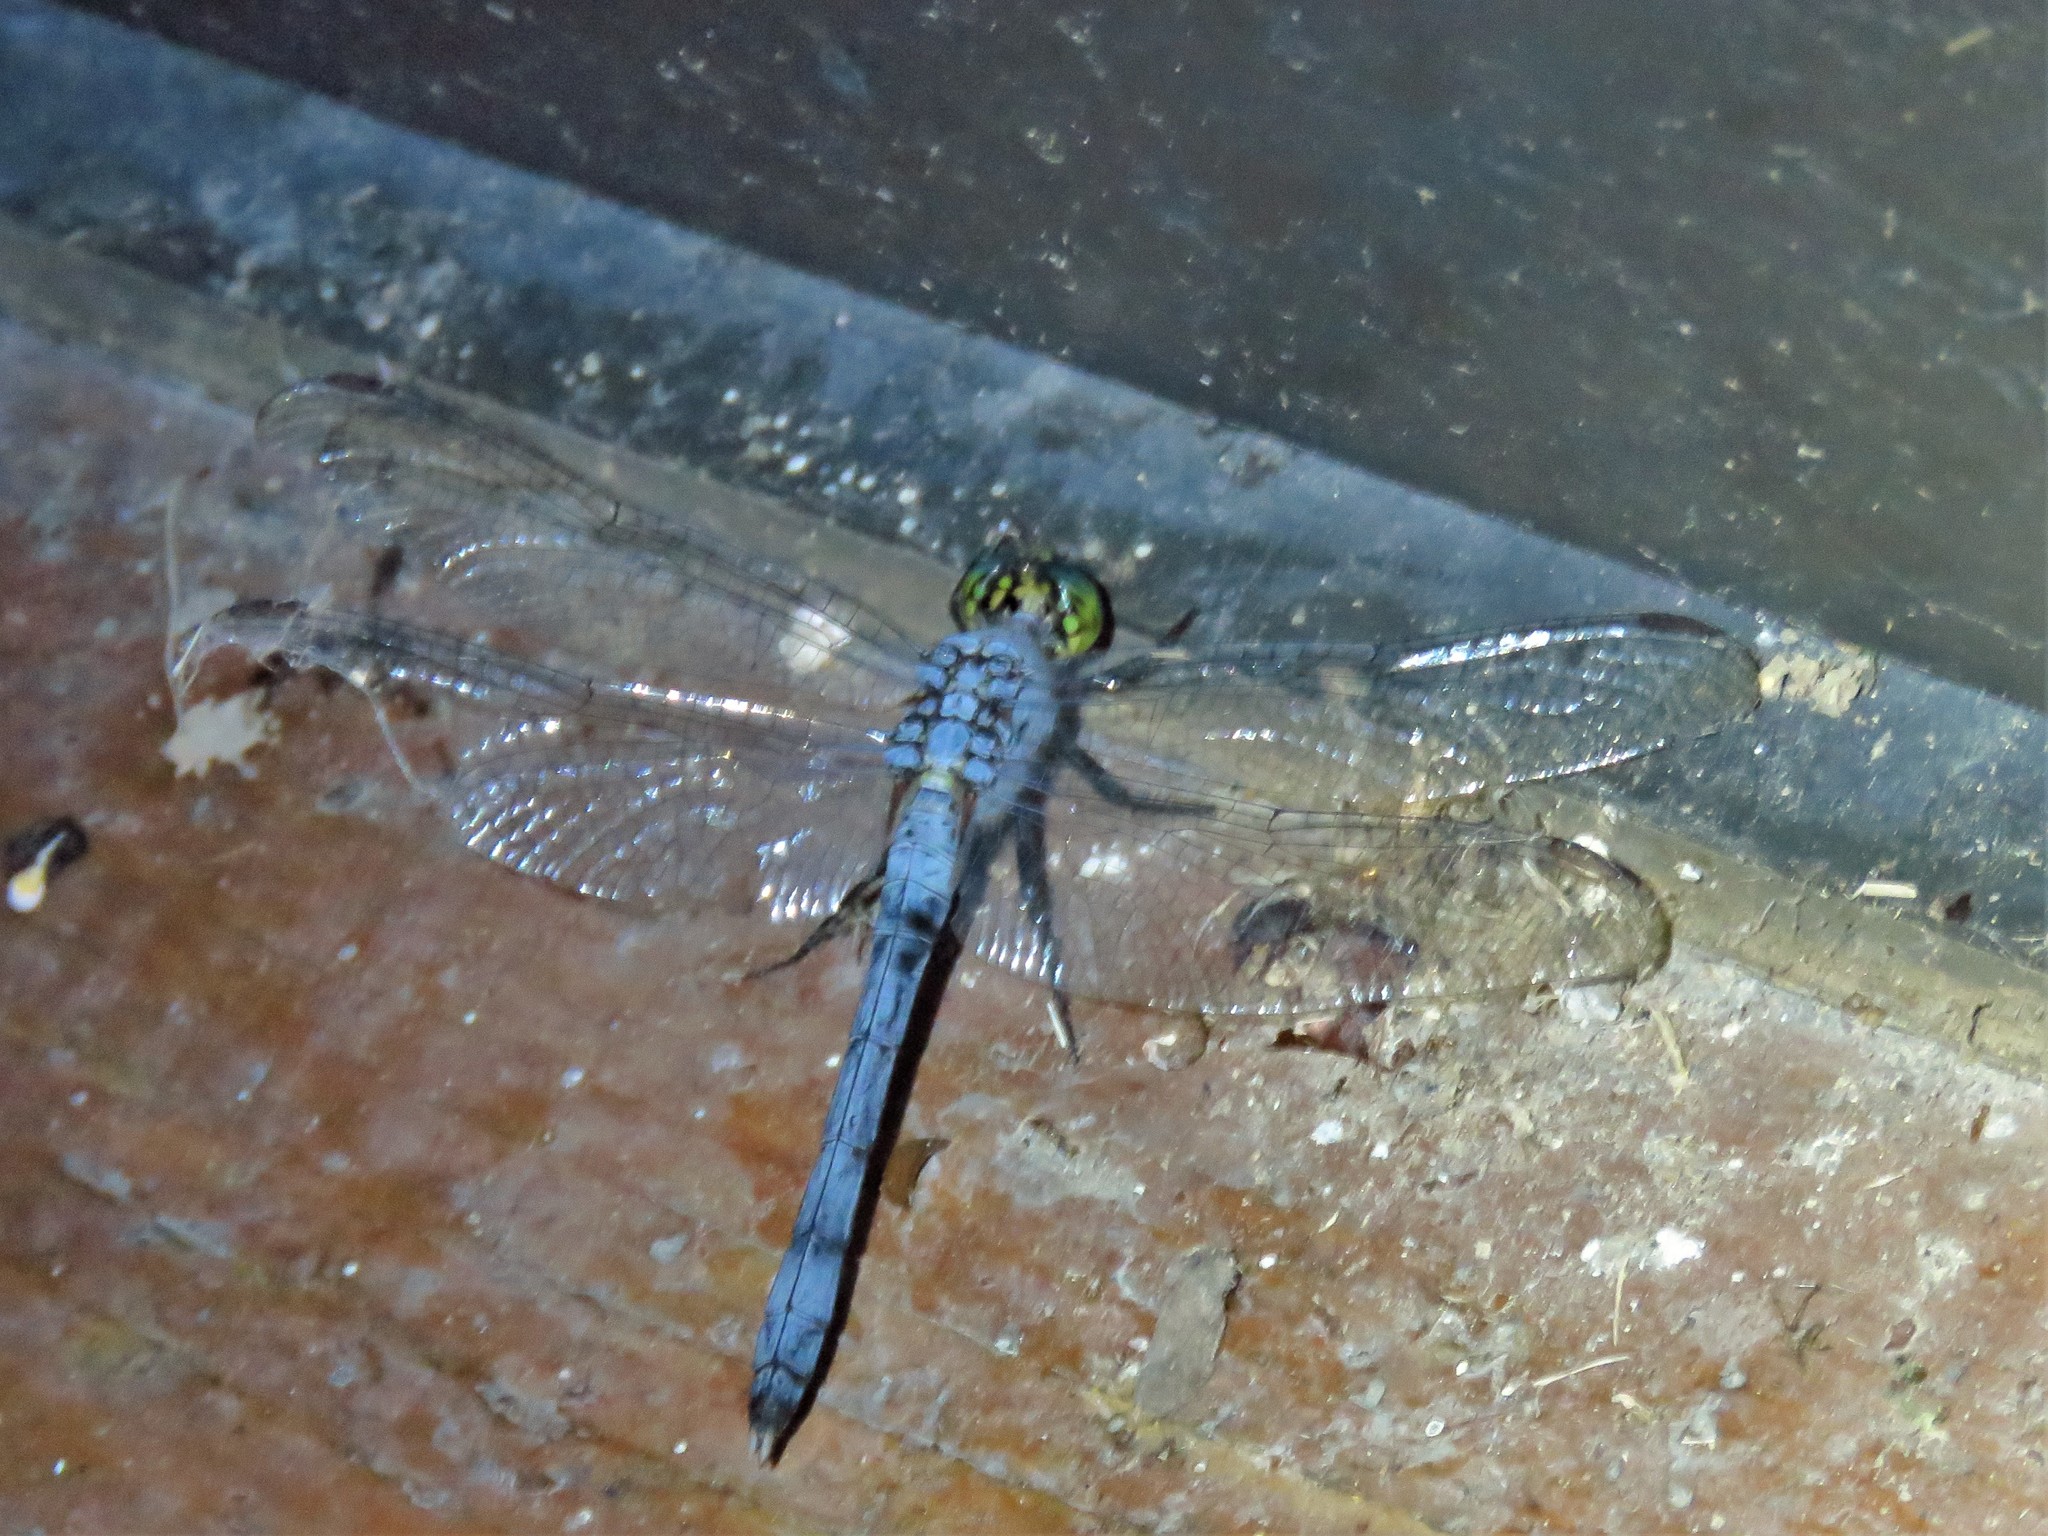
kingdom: Animalia
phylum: Arthropoda
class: Insecta
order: Odonata
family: Libellulidae
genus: Erythemis
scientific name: Erythemis simplicicollis
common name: Eastern pondhawk
